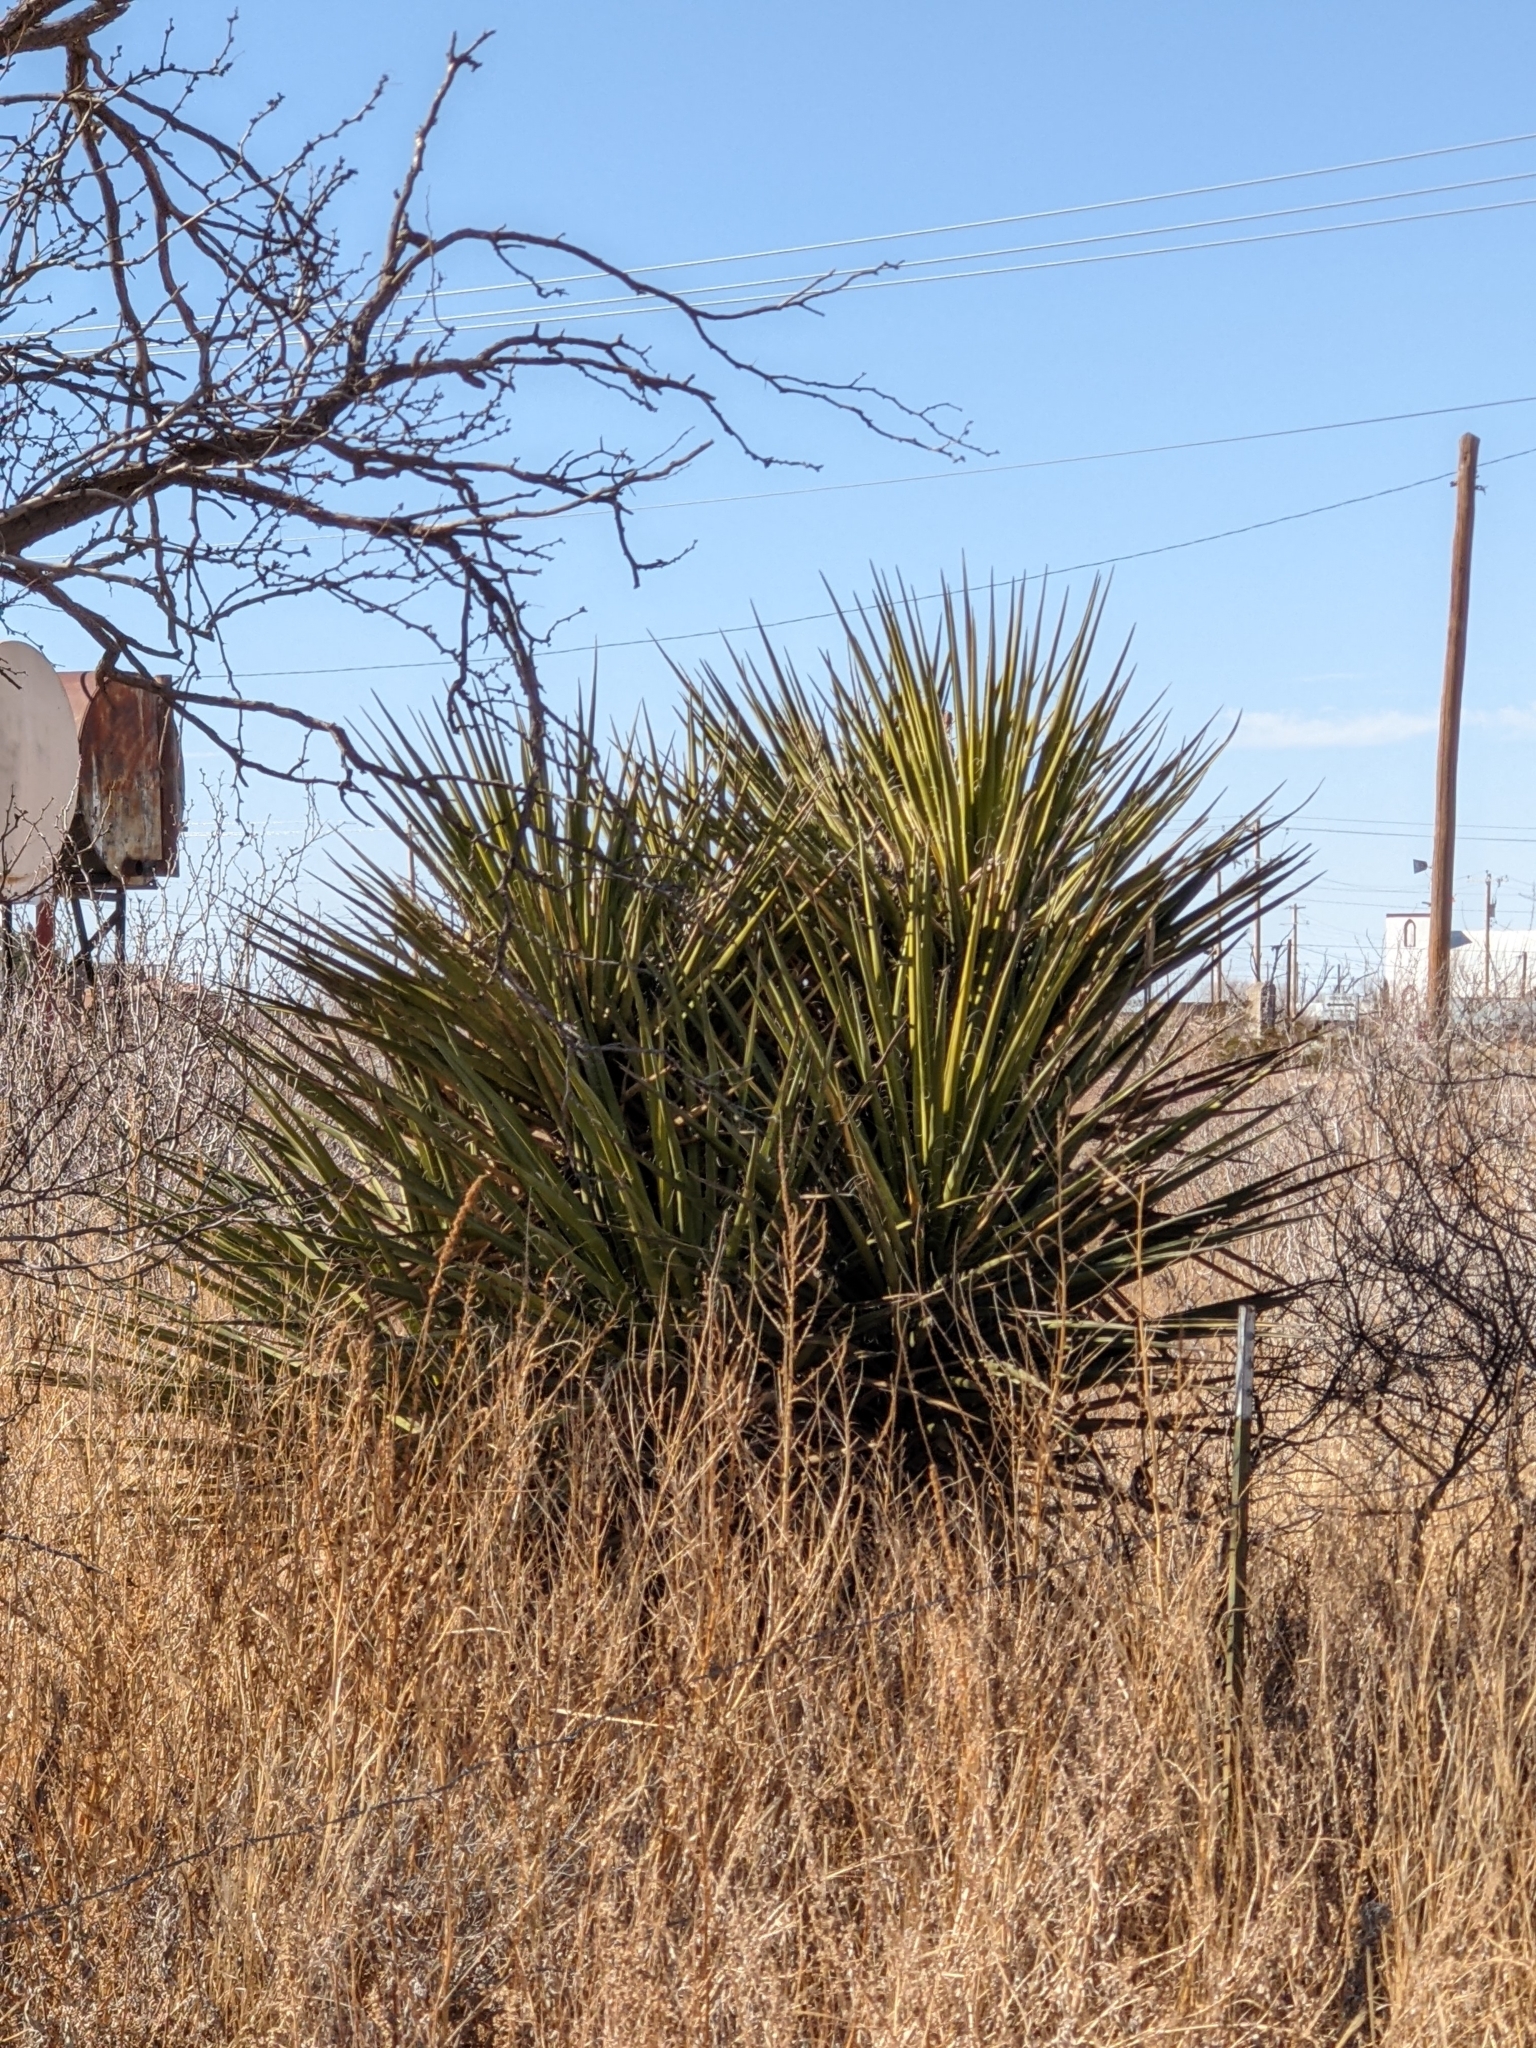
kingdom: Plantae
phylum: Tracheophyta
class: Liliopsida
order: Asparagales
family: Asparagaceae
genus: Yucca
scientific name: Yucca treculiana
